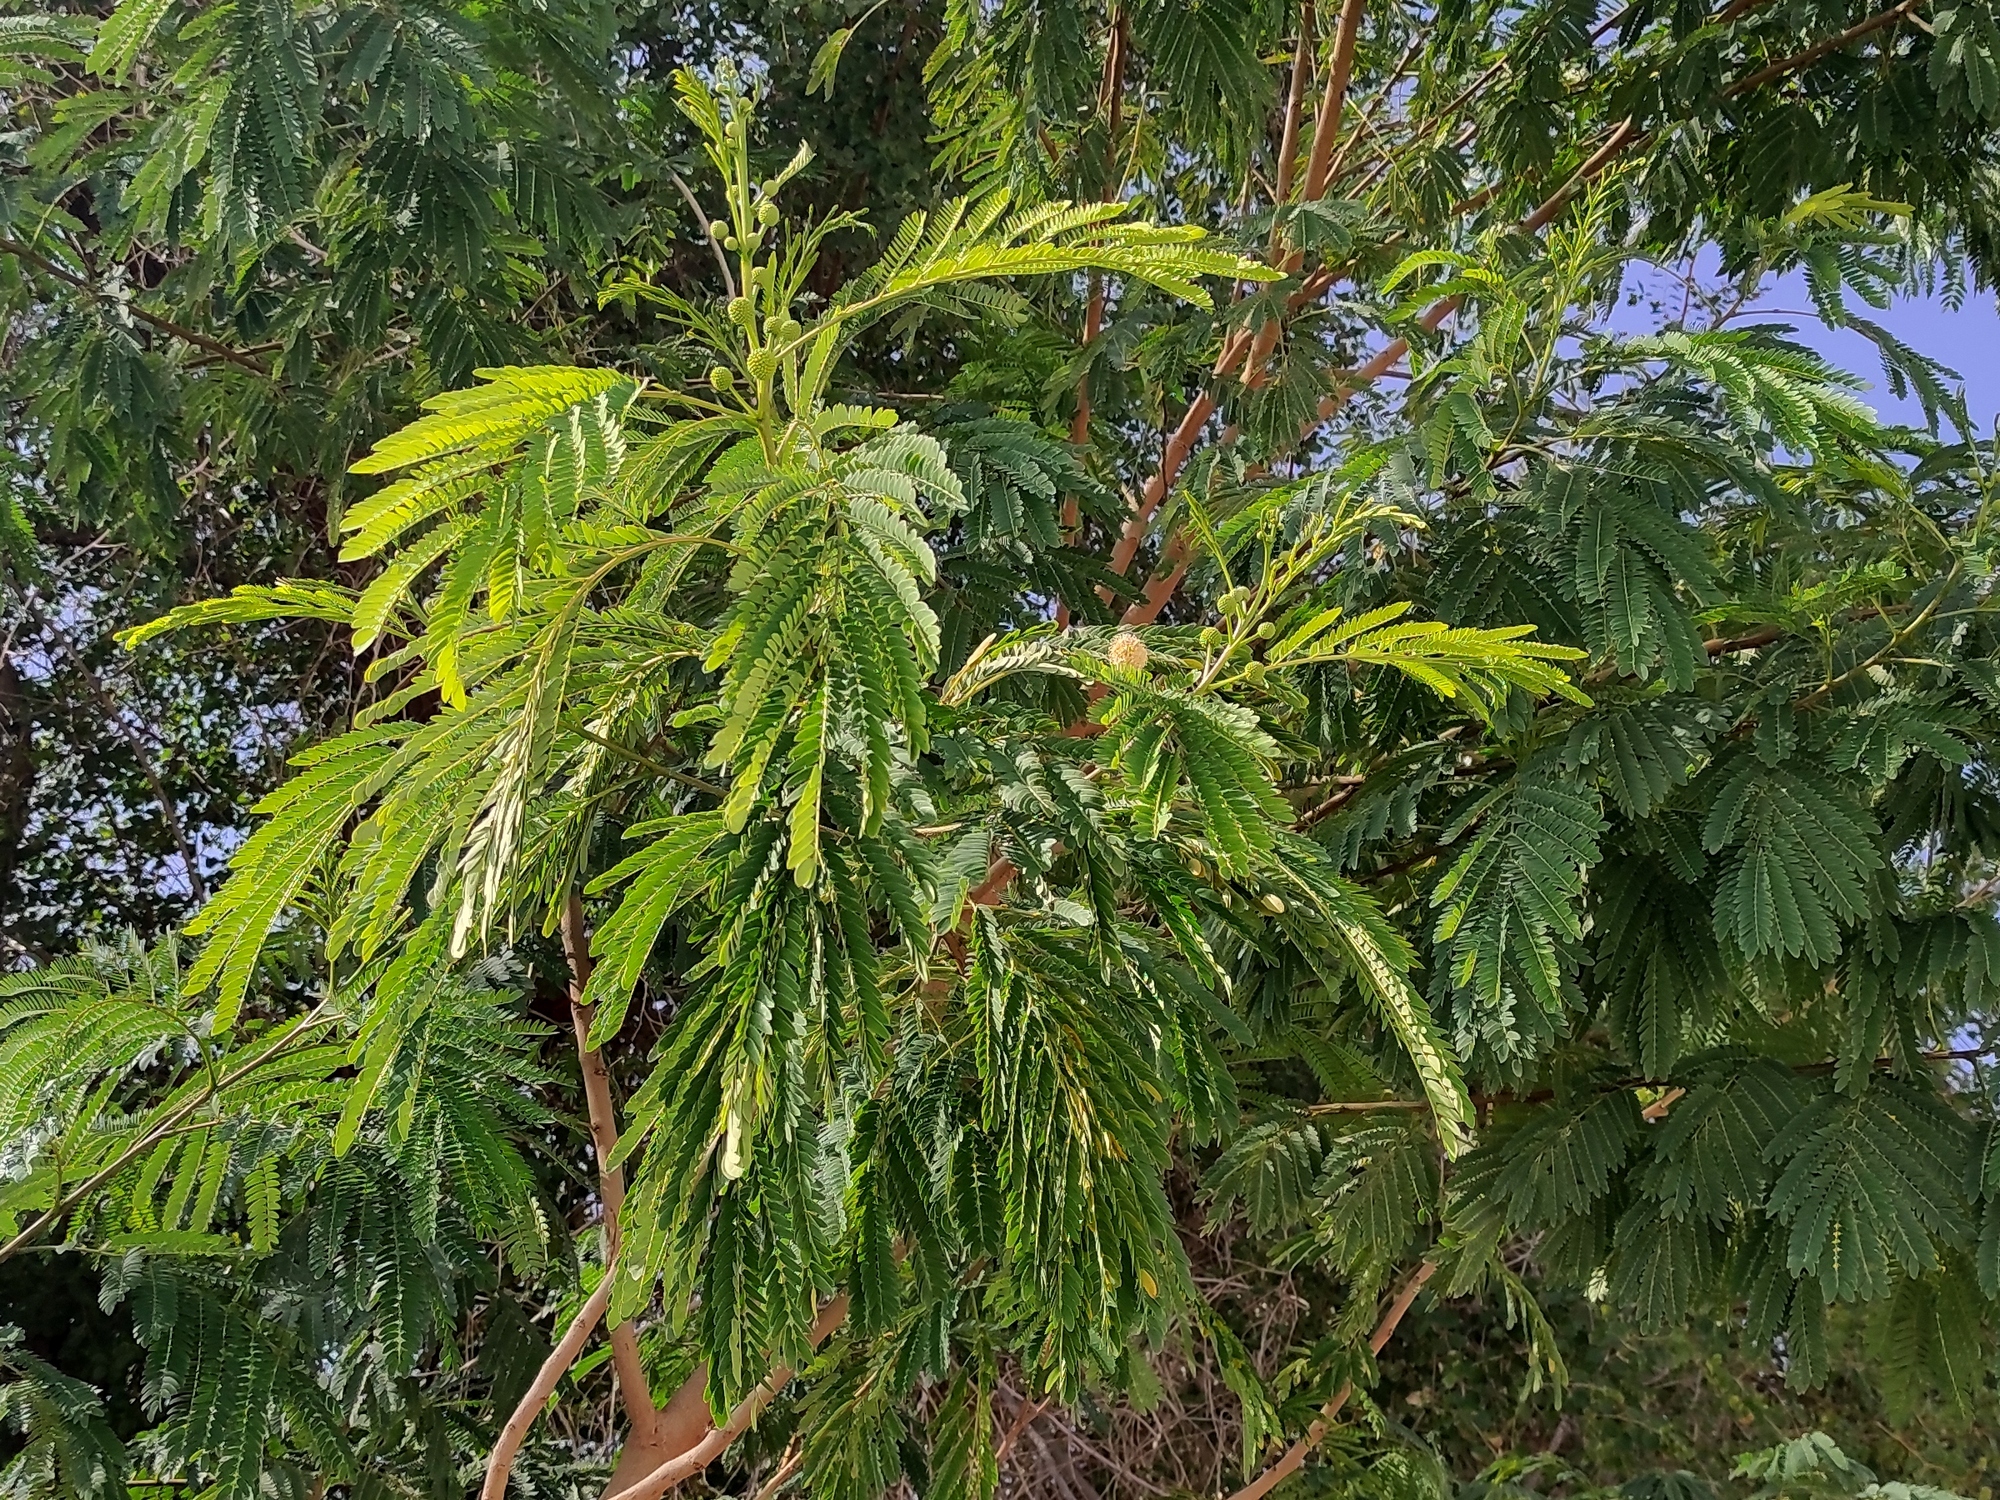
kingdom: Plantae
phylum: Tracheophyta
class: Magnoliopsida
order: Fabales
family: Fabaceae
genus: Leucaena
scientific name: Leucaena leucocephala
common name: White leadtree
